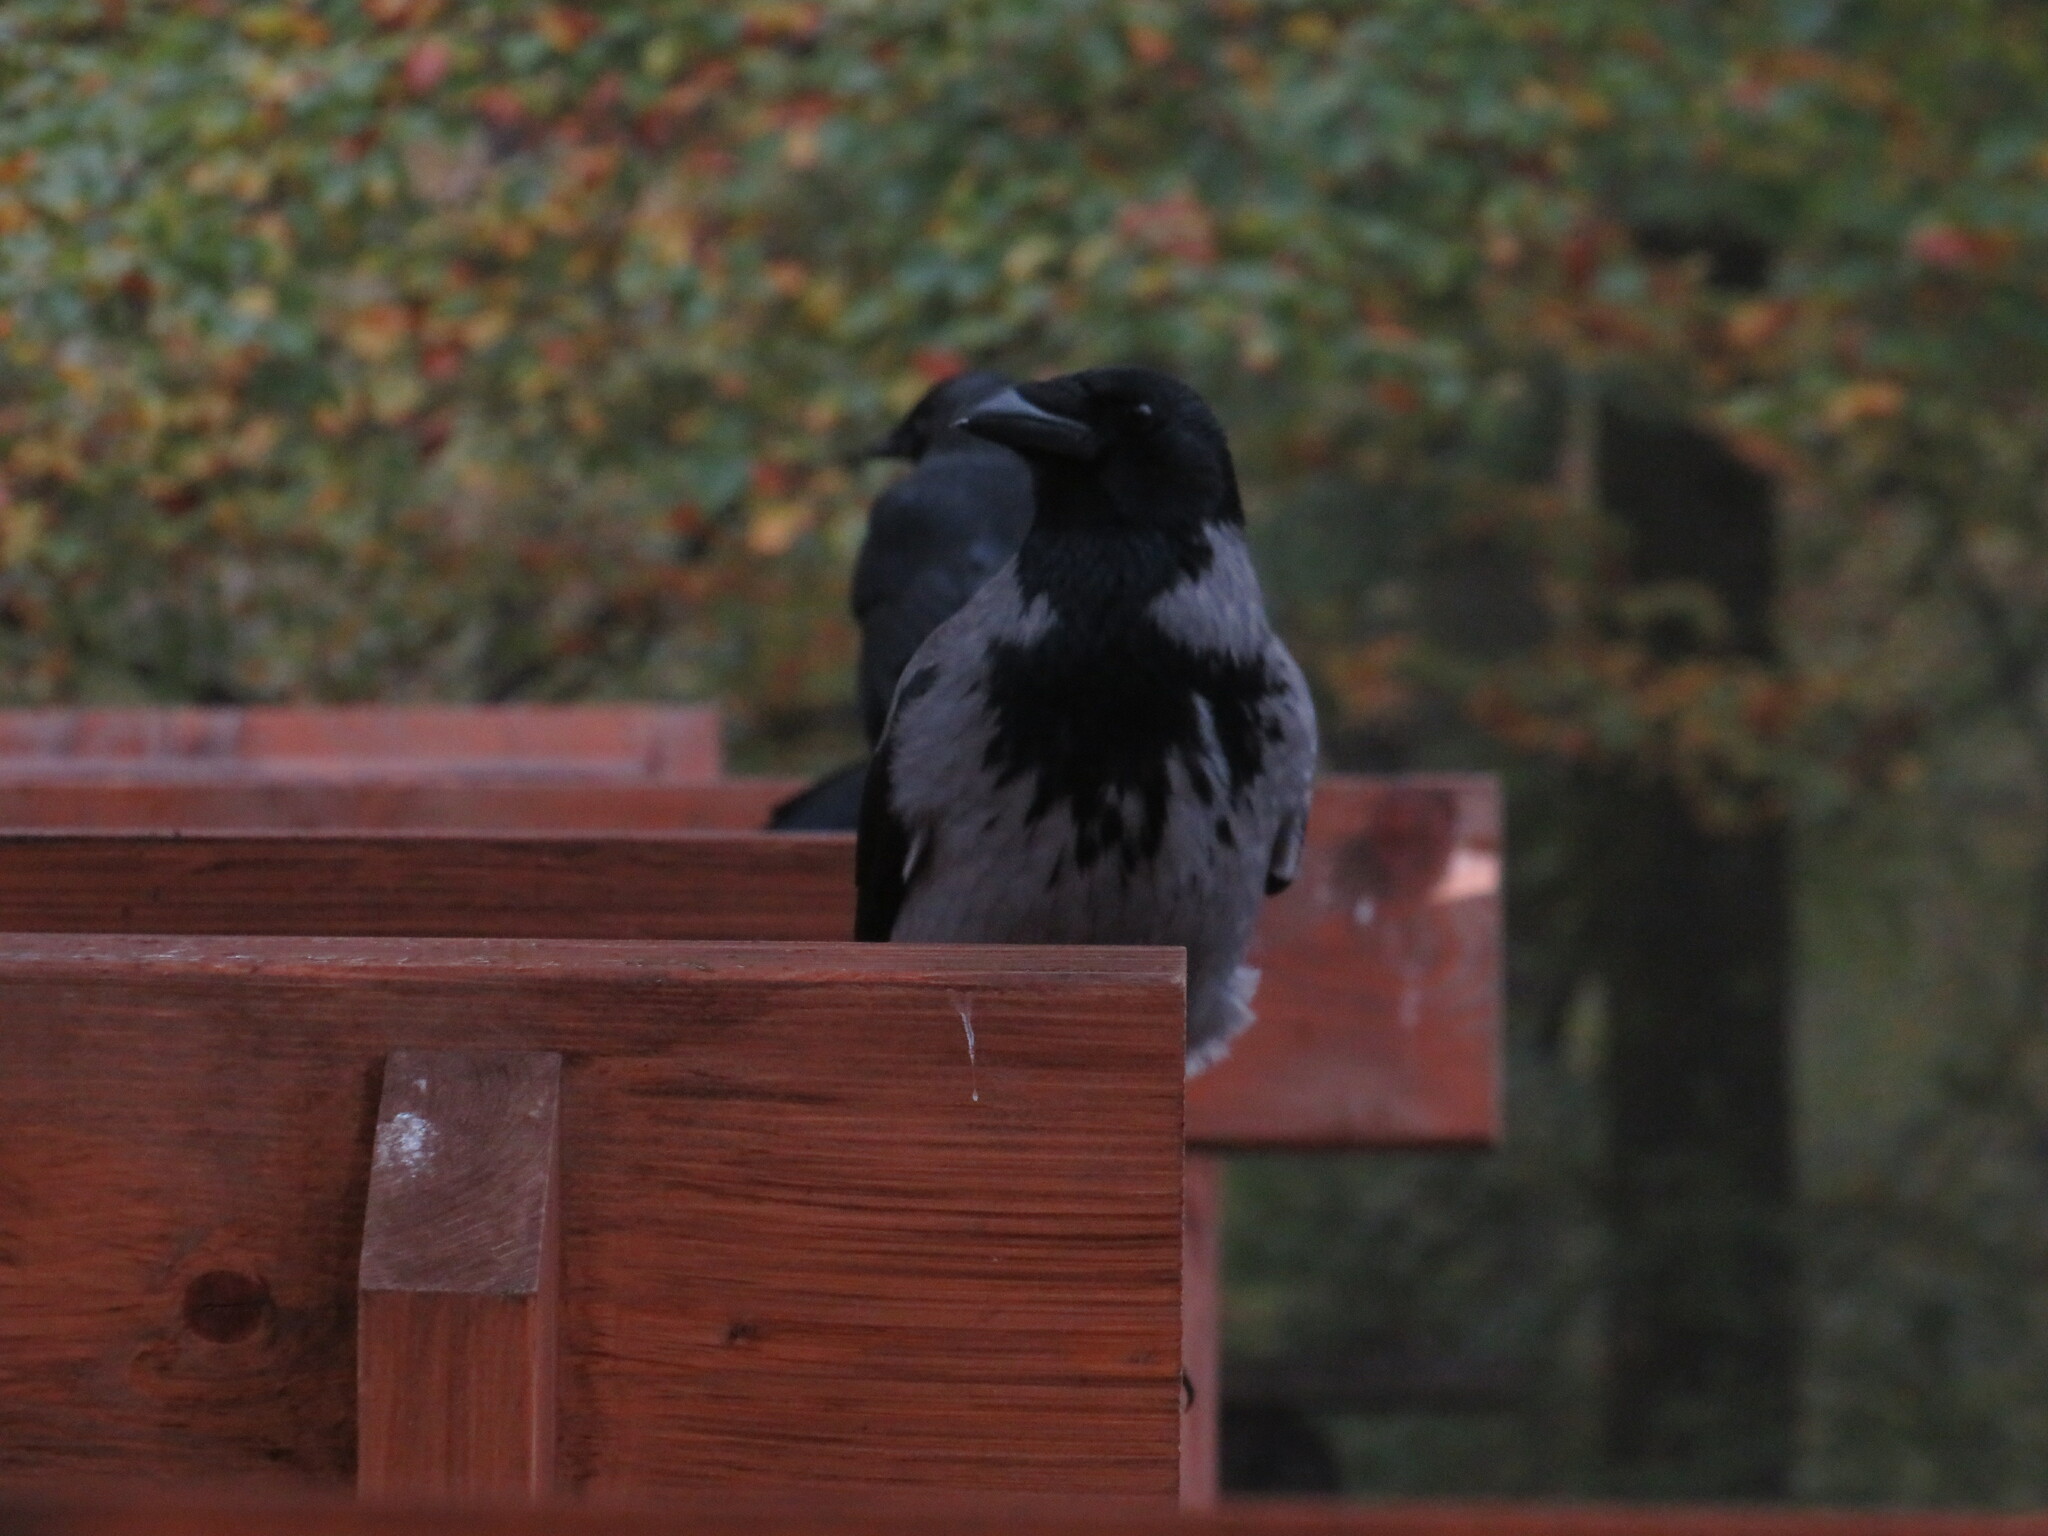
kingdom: Animalia
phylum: Chordata
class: Aves
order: Passeriformes
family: Corvidae
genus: Corvus
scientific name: Corvus cornix
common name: Hooded crow
